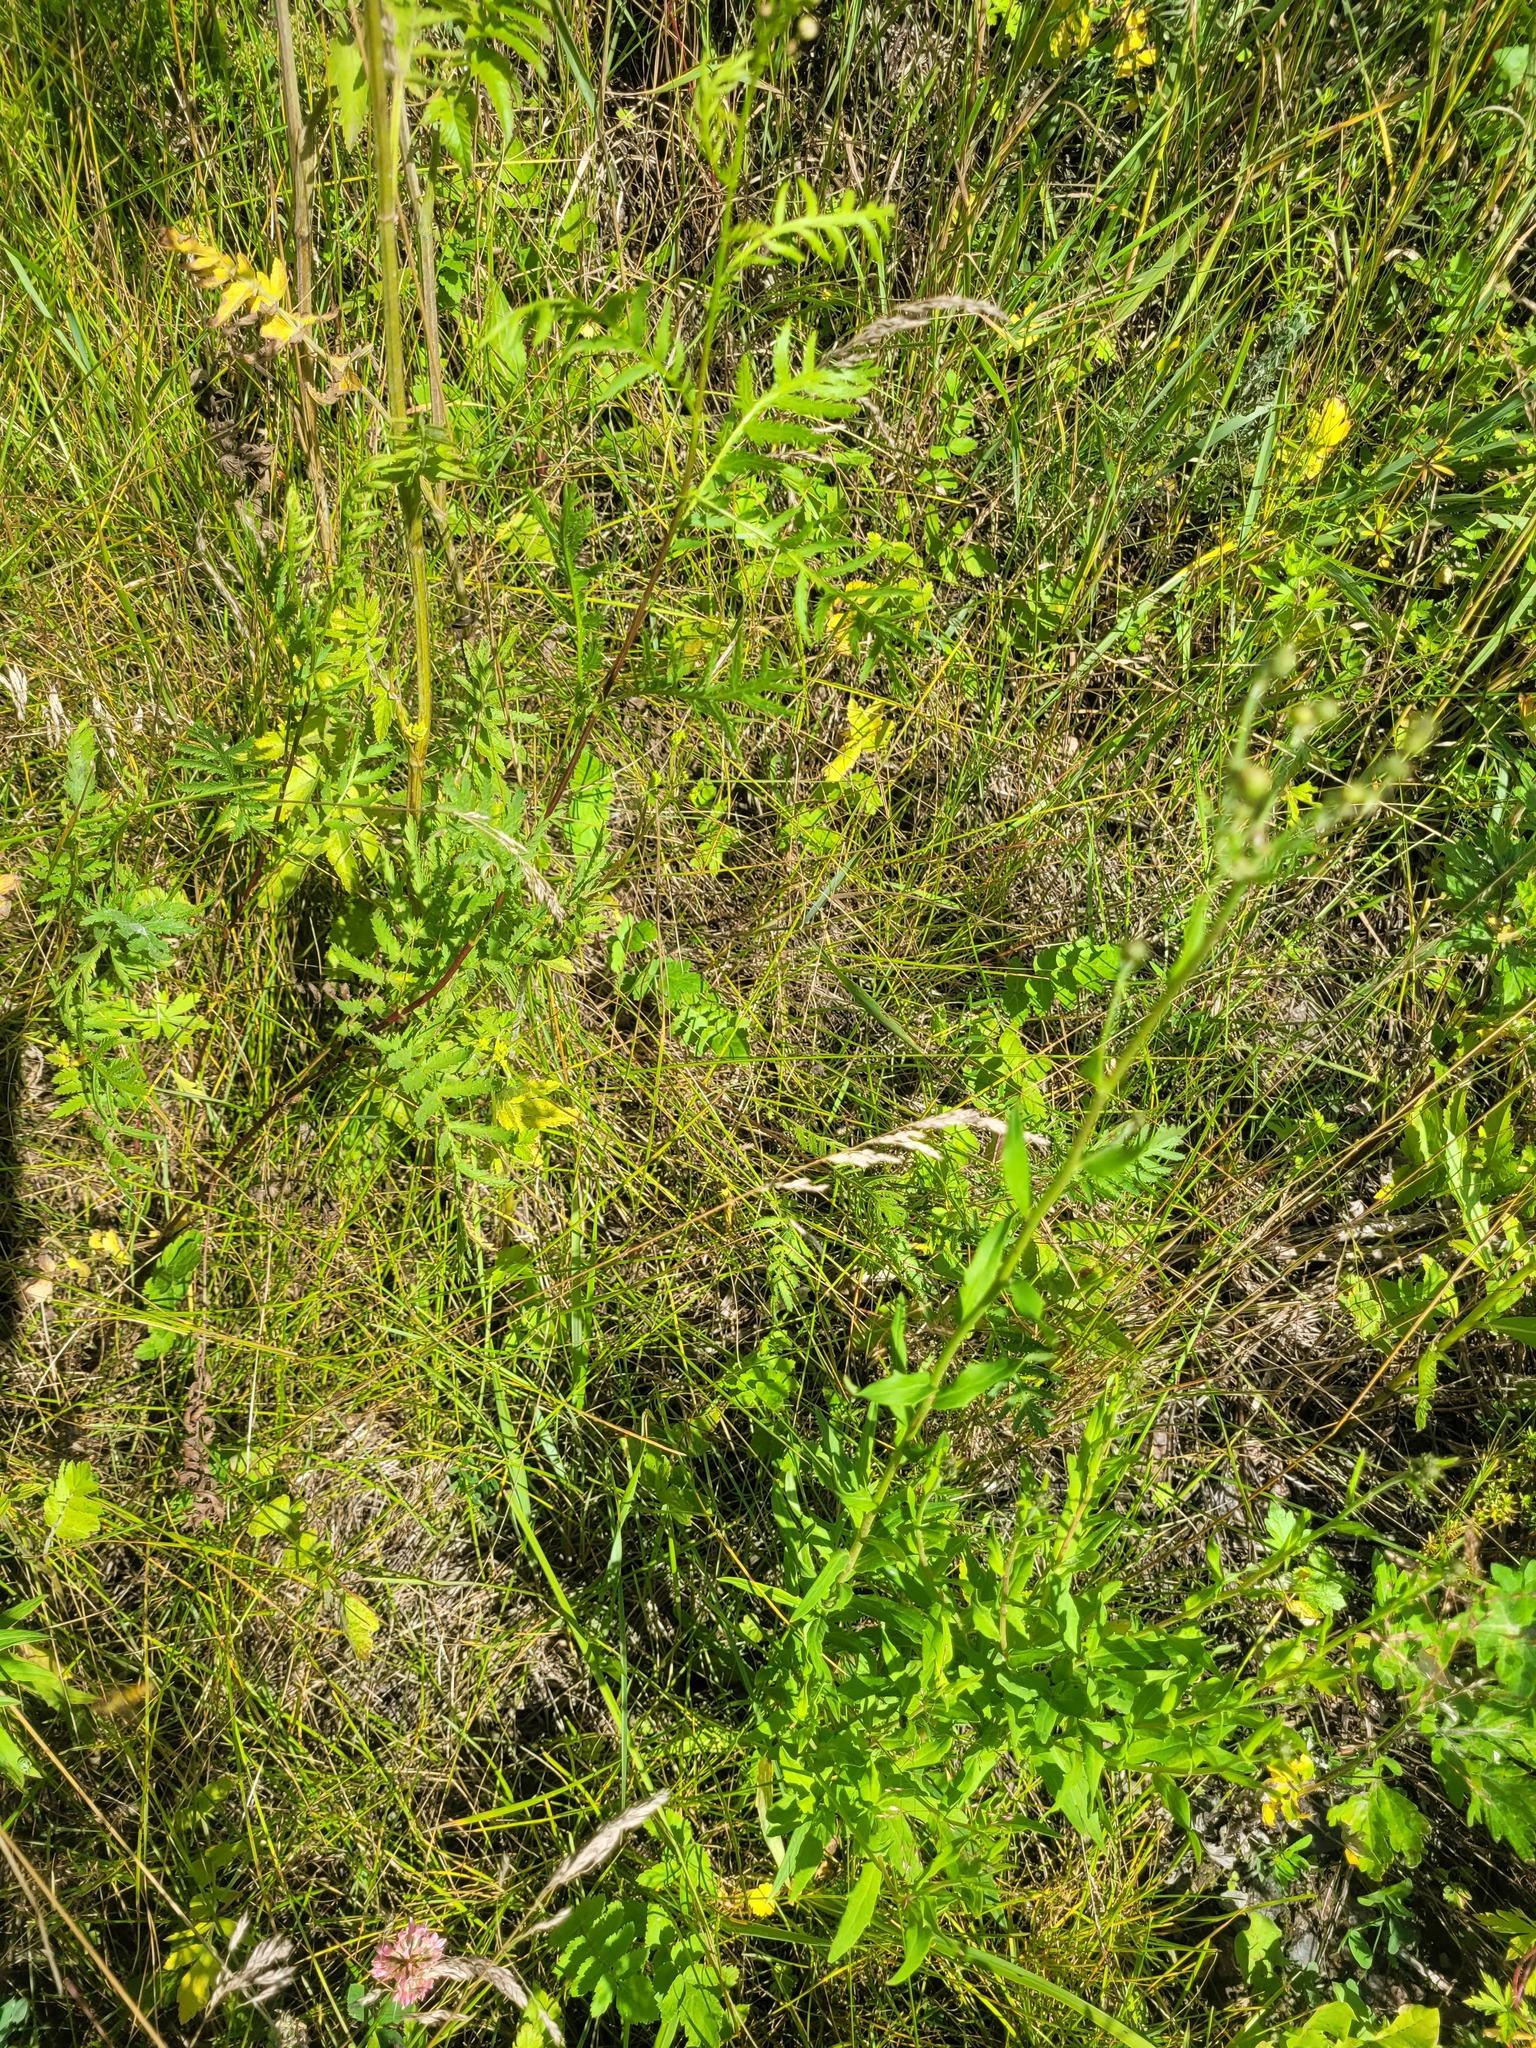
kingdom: Plantae
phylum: Tracheophyta
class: Liliopsida
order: Poales
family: Poaceae
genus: Poa
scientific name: Poa angustifolia
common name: Narrow-leaved meadow-grass
